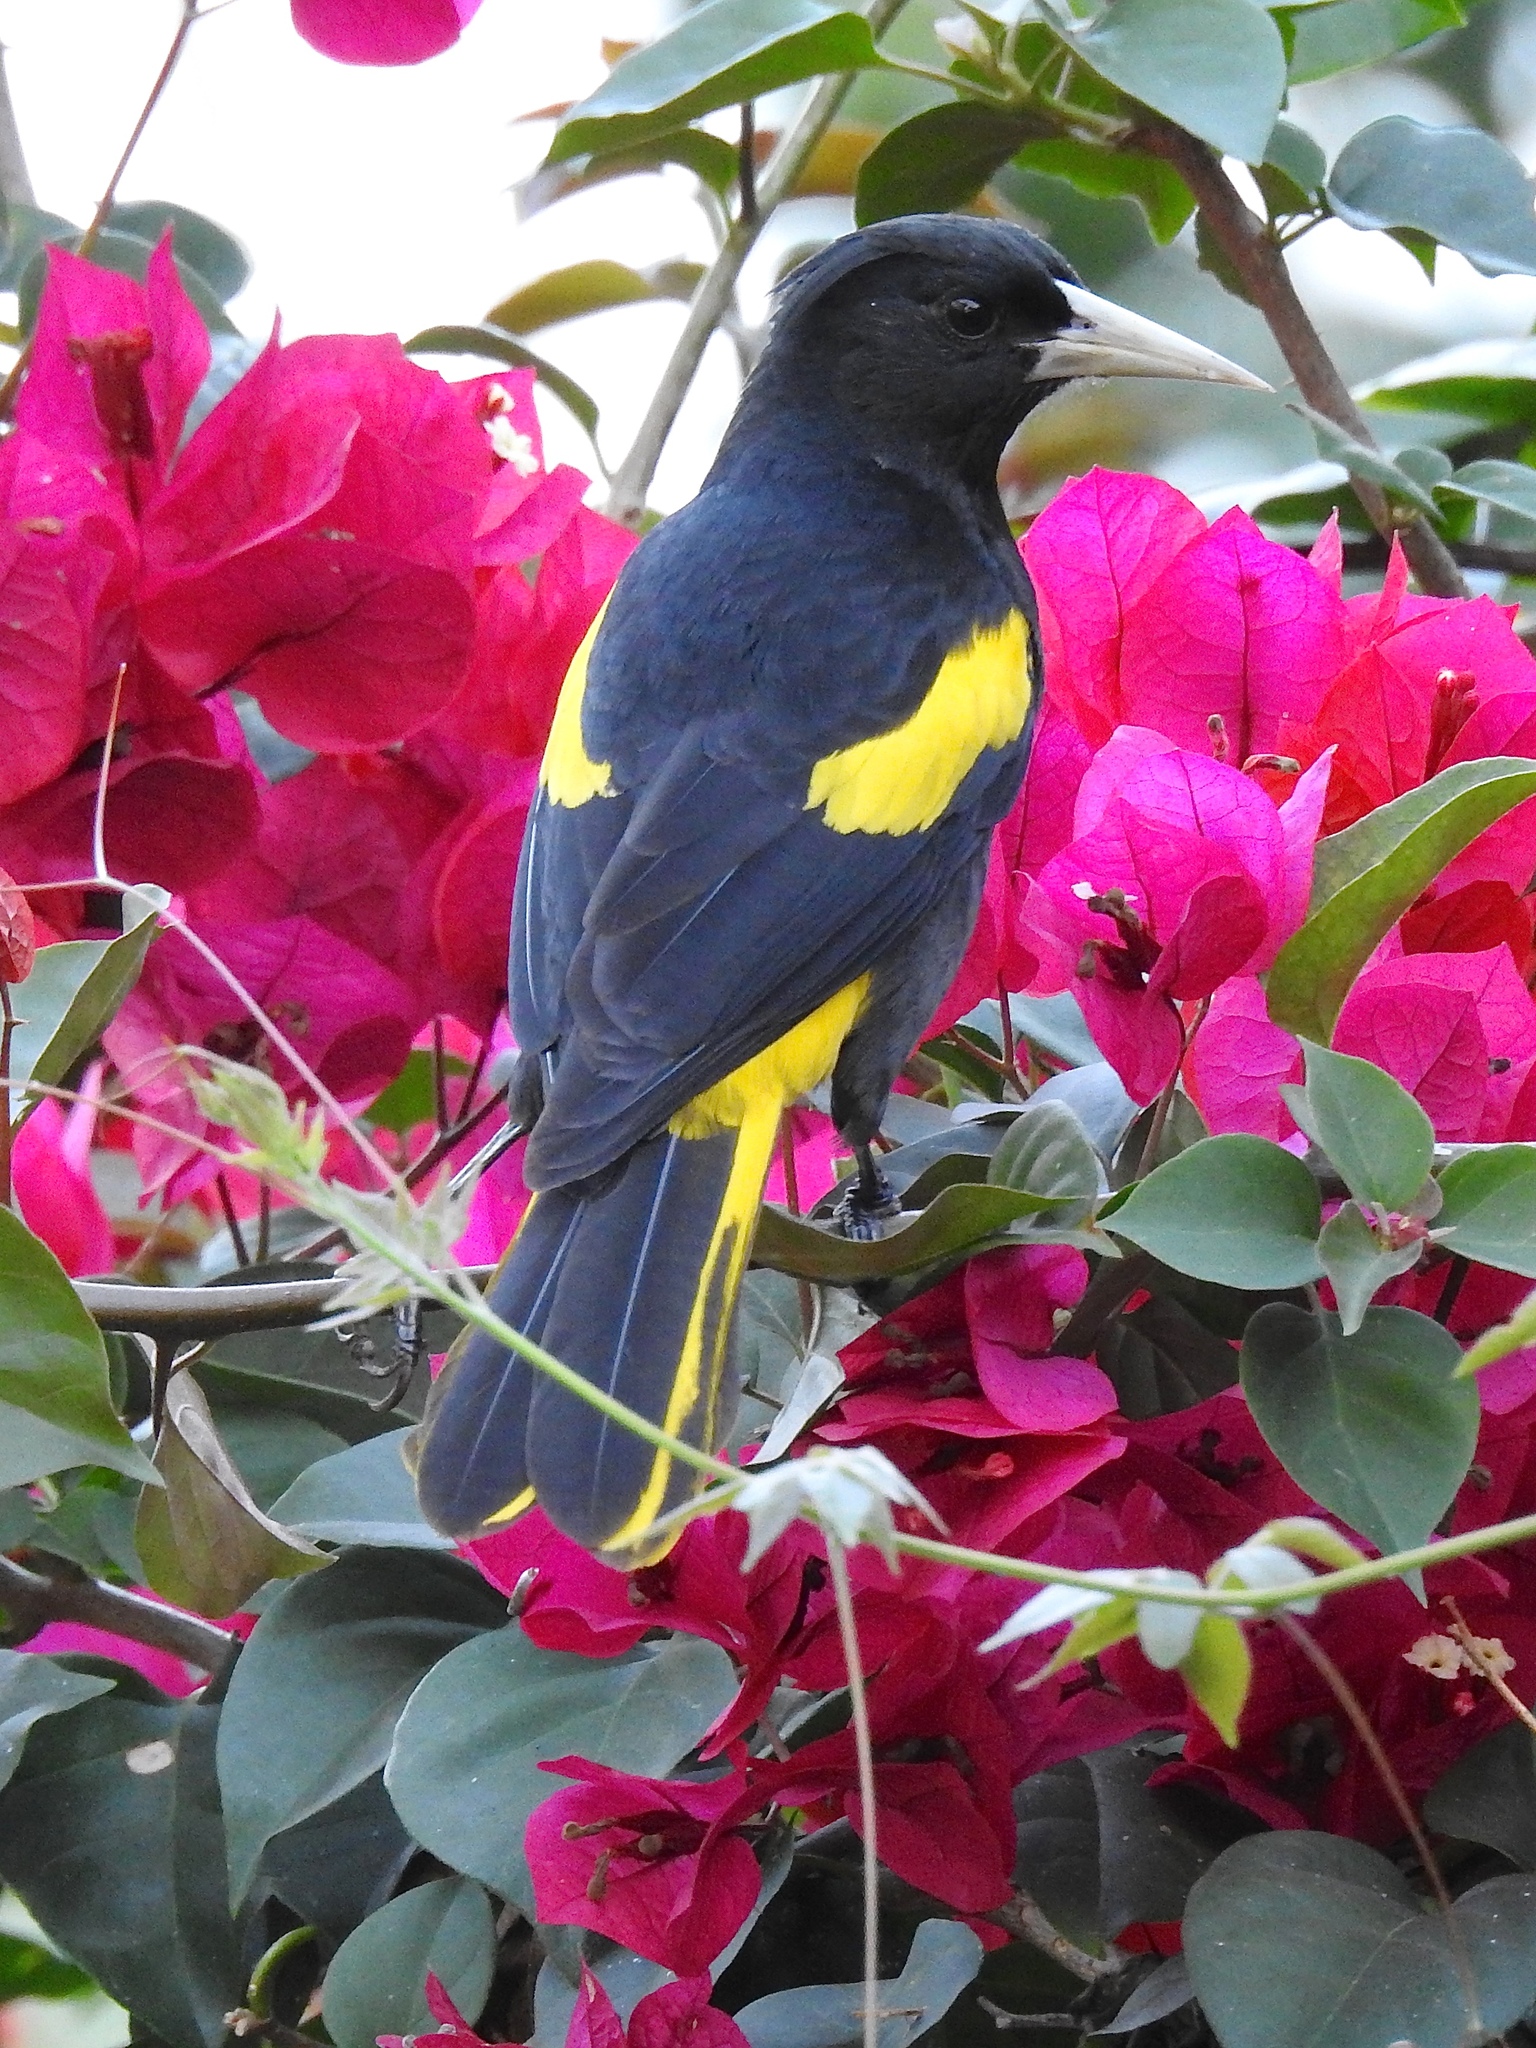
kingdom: Animalia
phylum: Chordata
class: Aves
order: Passeriformes
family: Icteridae
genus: Cacicus
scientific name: Cacicus melanicterus
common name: Yellow-winged cacique
